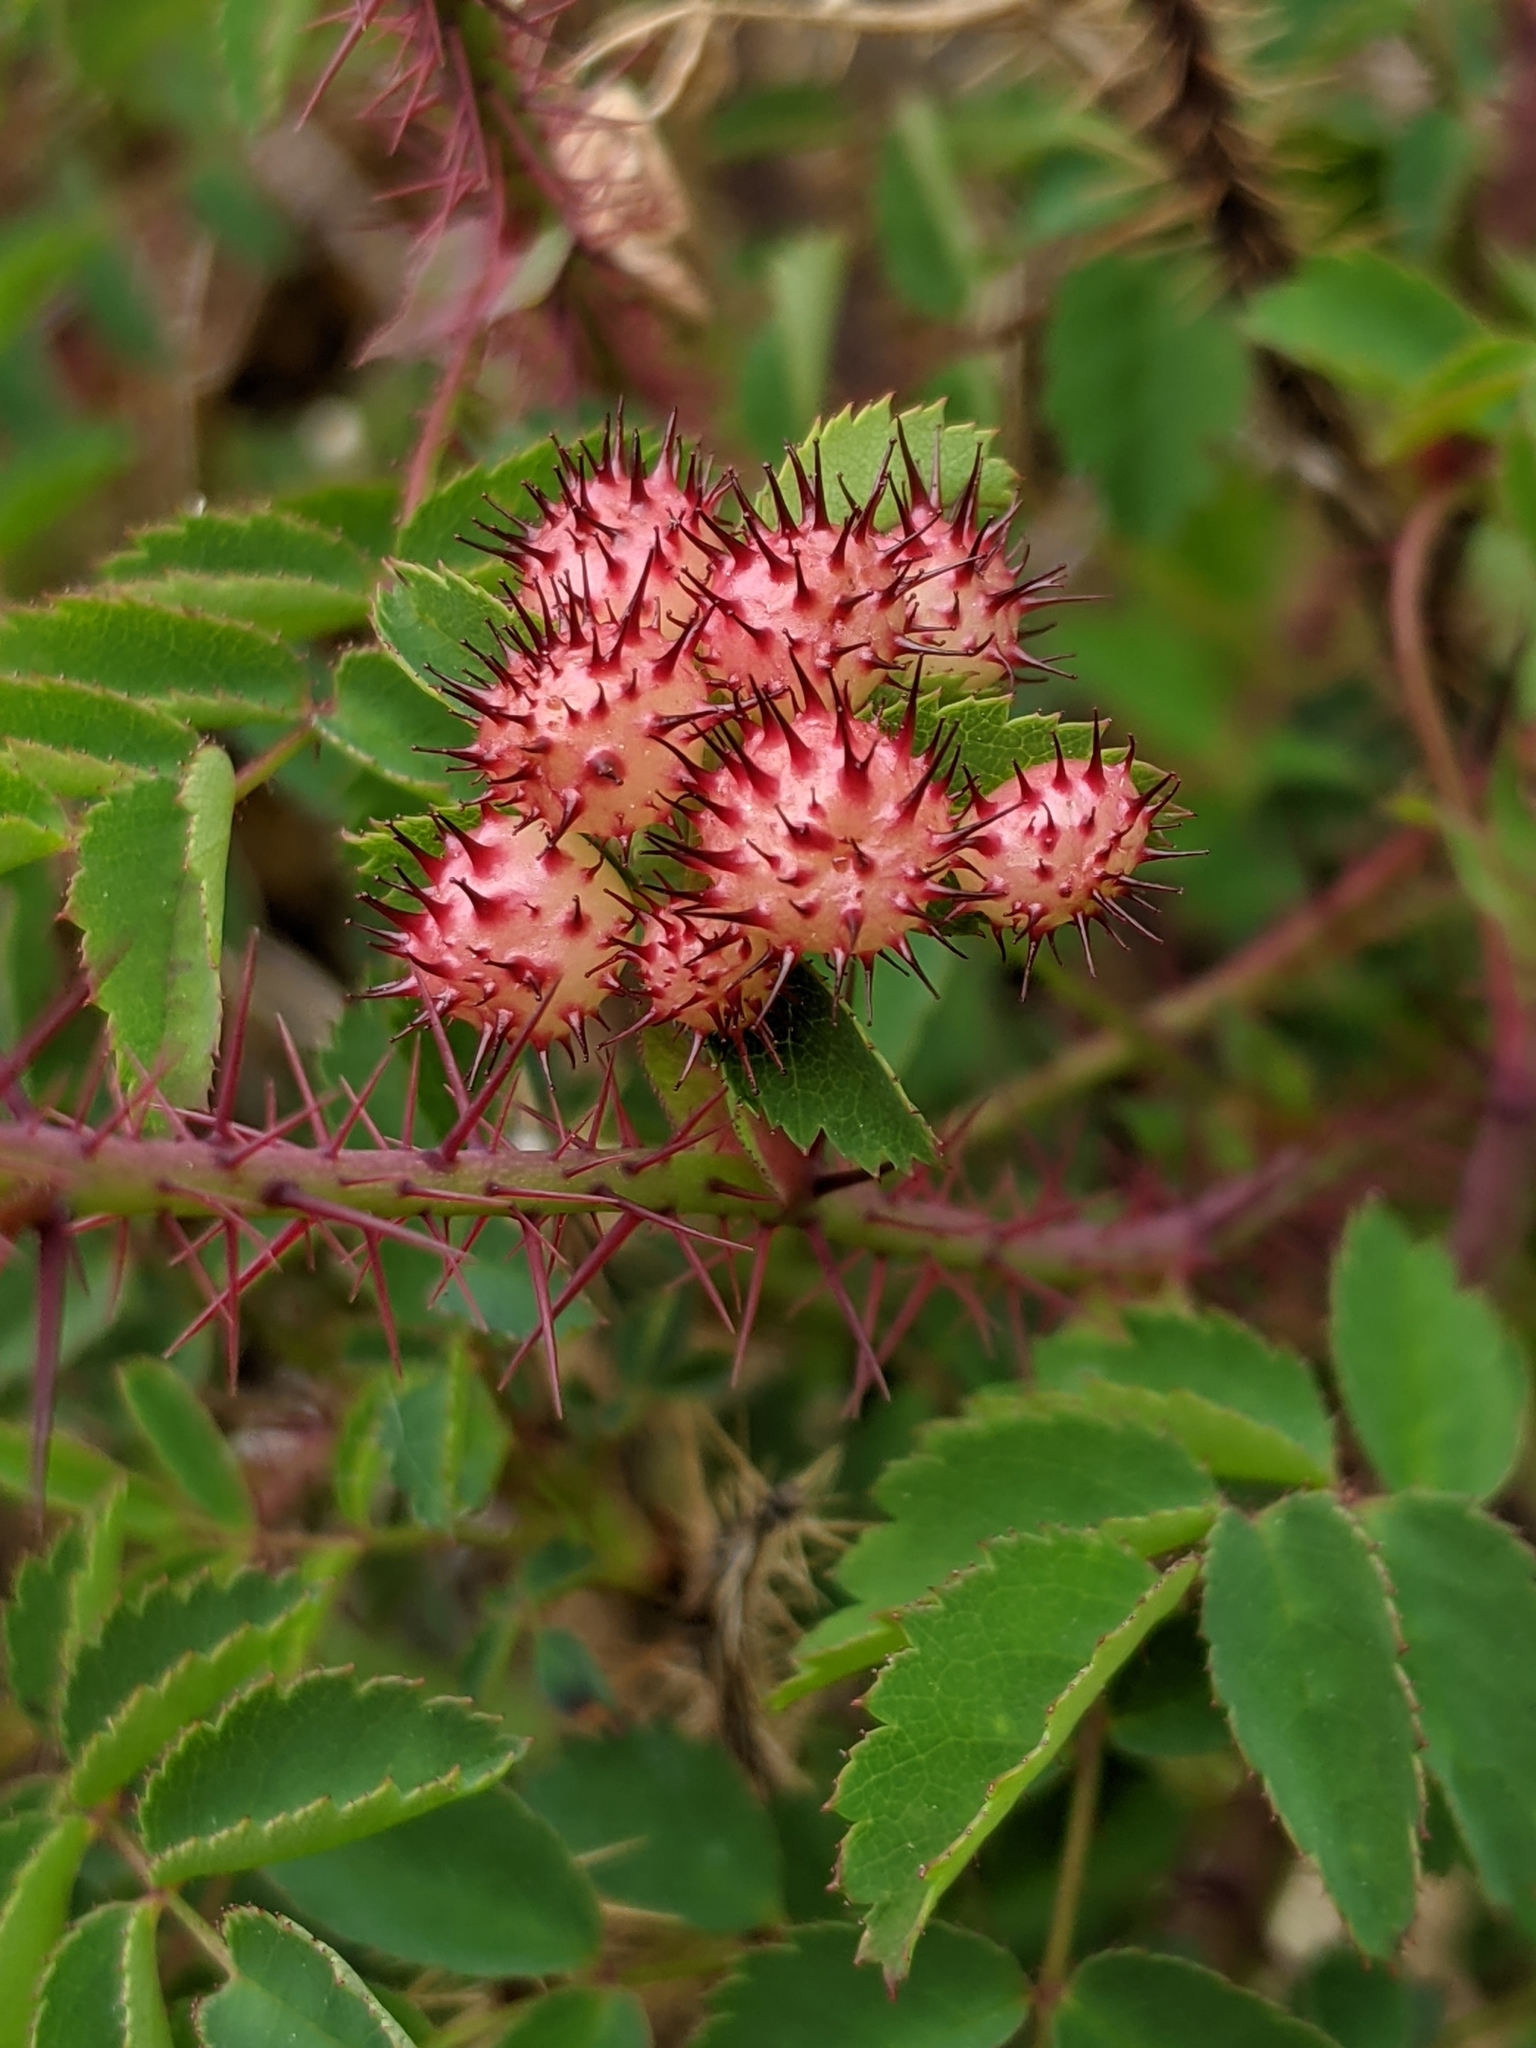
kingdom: Animalia
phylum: Arthropoda
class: Insecta
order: Hymenoptera
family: Cynipidae
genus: Diplolepis
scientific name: Diplolepis polita
